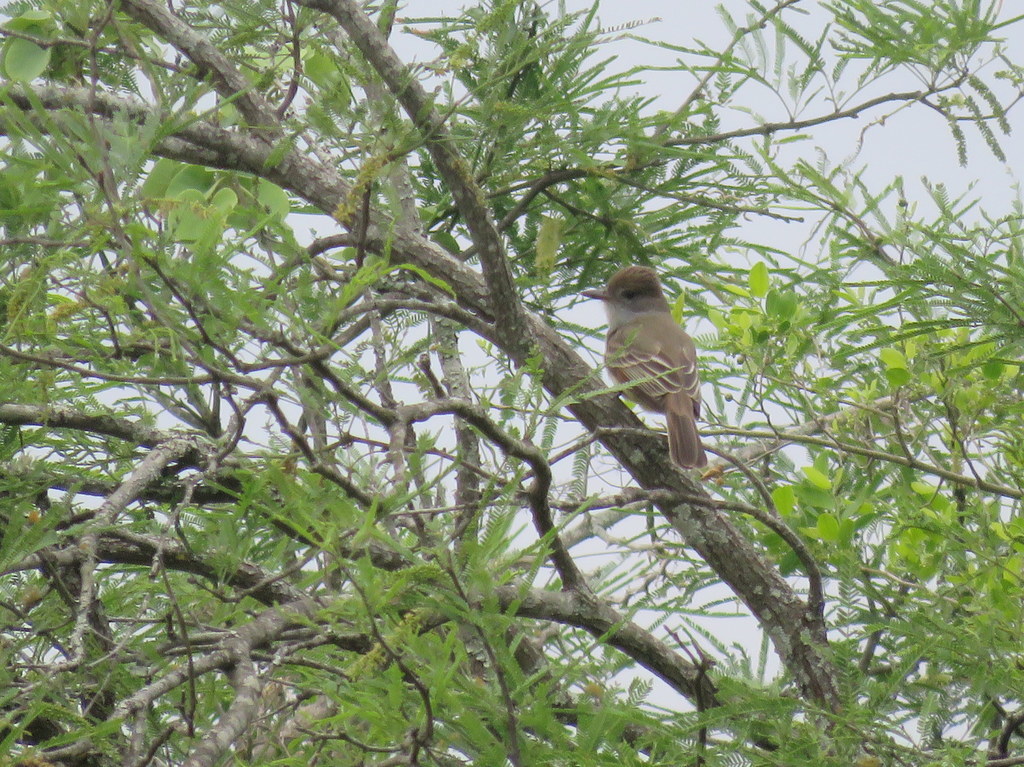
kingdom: Animalia
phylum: Chordata
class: Aves
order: Passeriformes
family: Tyrannidae
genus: Myiarchus
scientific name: Myiarchus swainsoni
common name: Swainson's flycatcher
